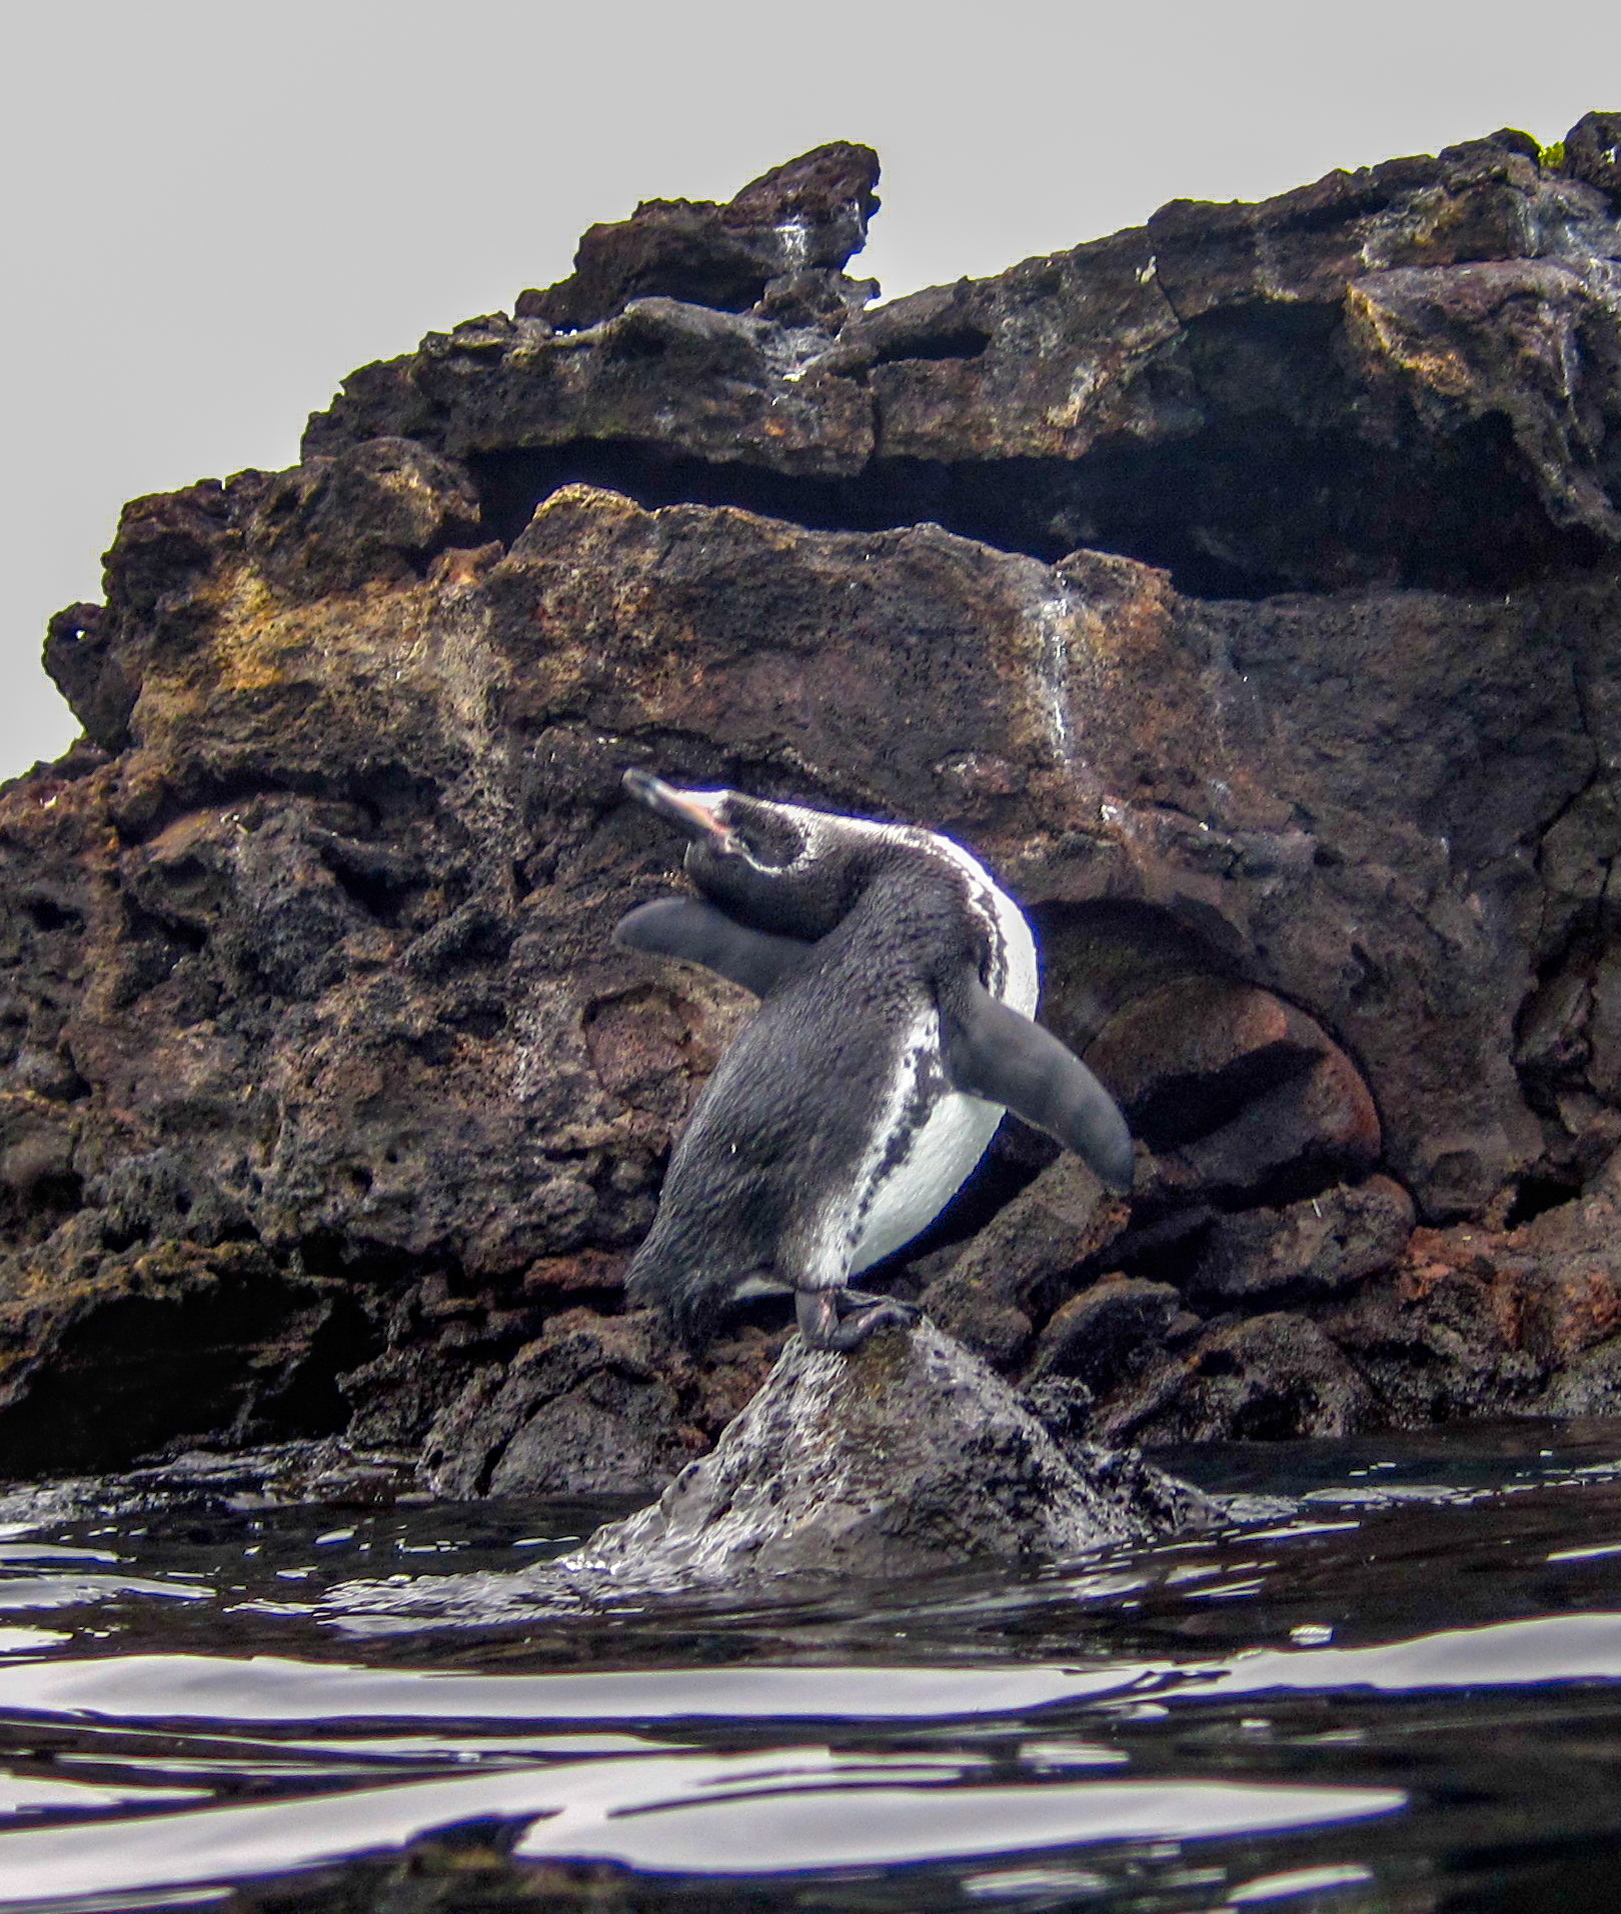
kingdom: Animalia
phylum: Chordata
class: Aves
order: Sphenisciformes
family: Spheniscidae
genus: Spheniscus
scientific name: Spheniscus mendiculus
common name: Galapagos penguin
